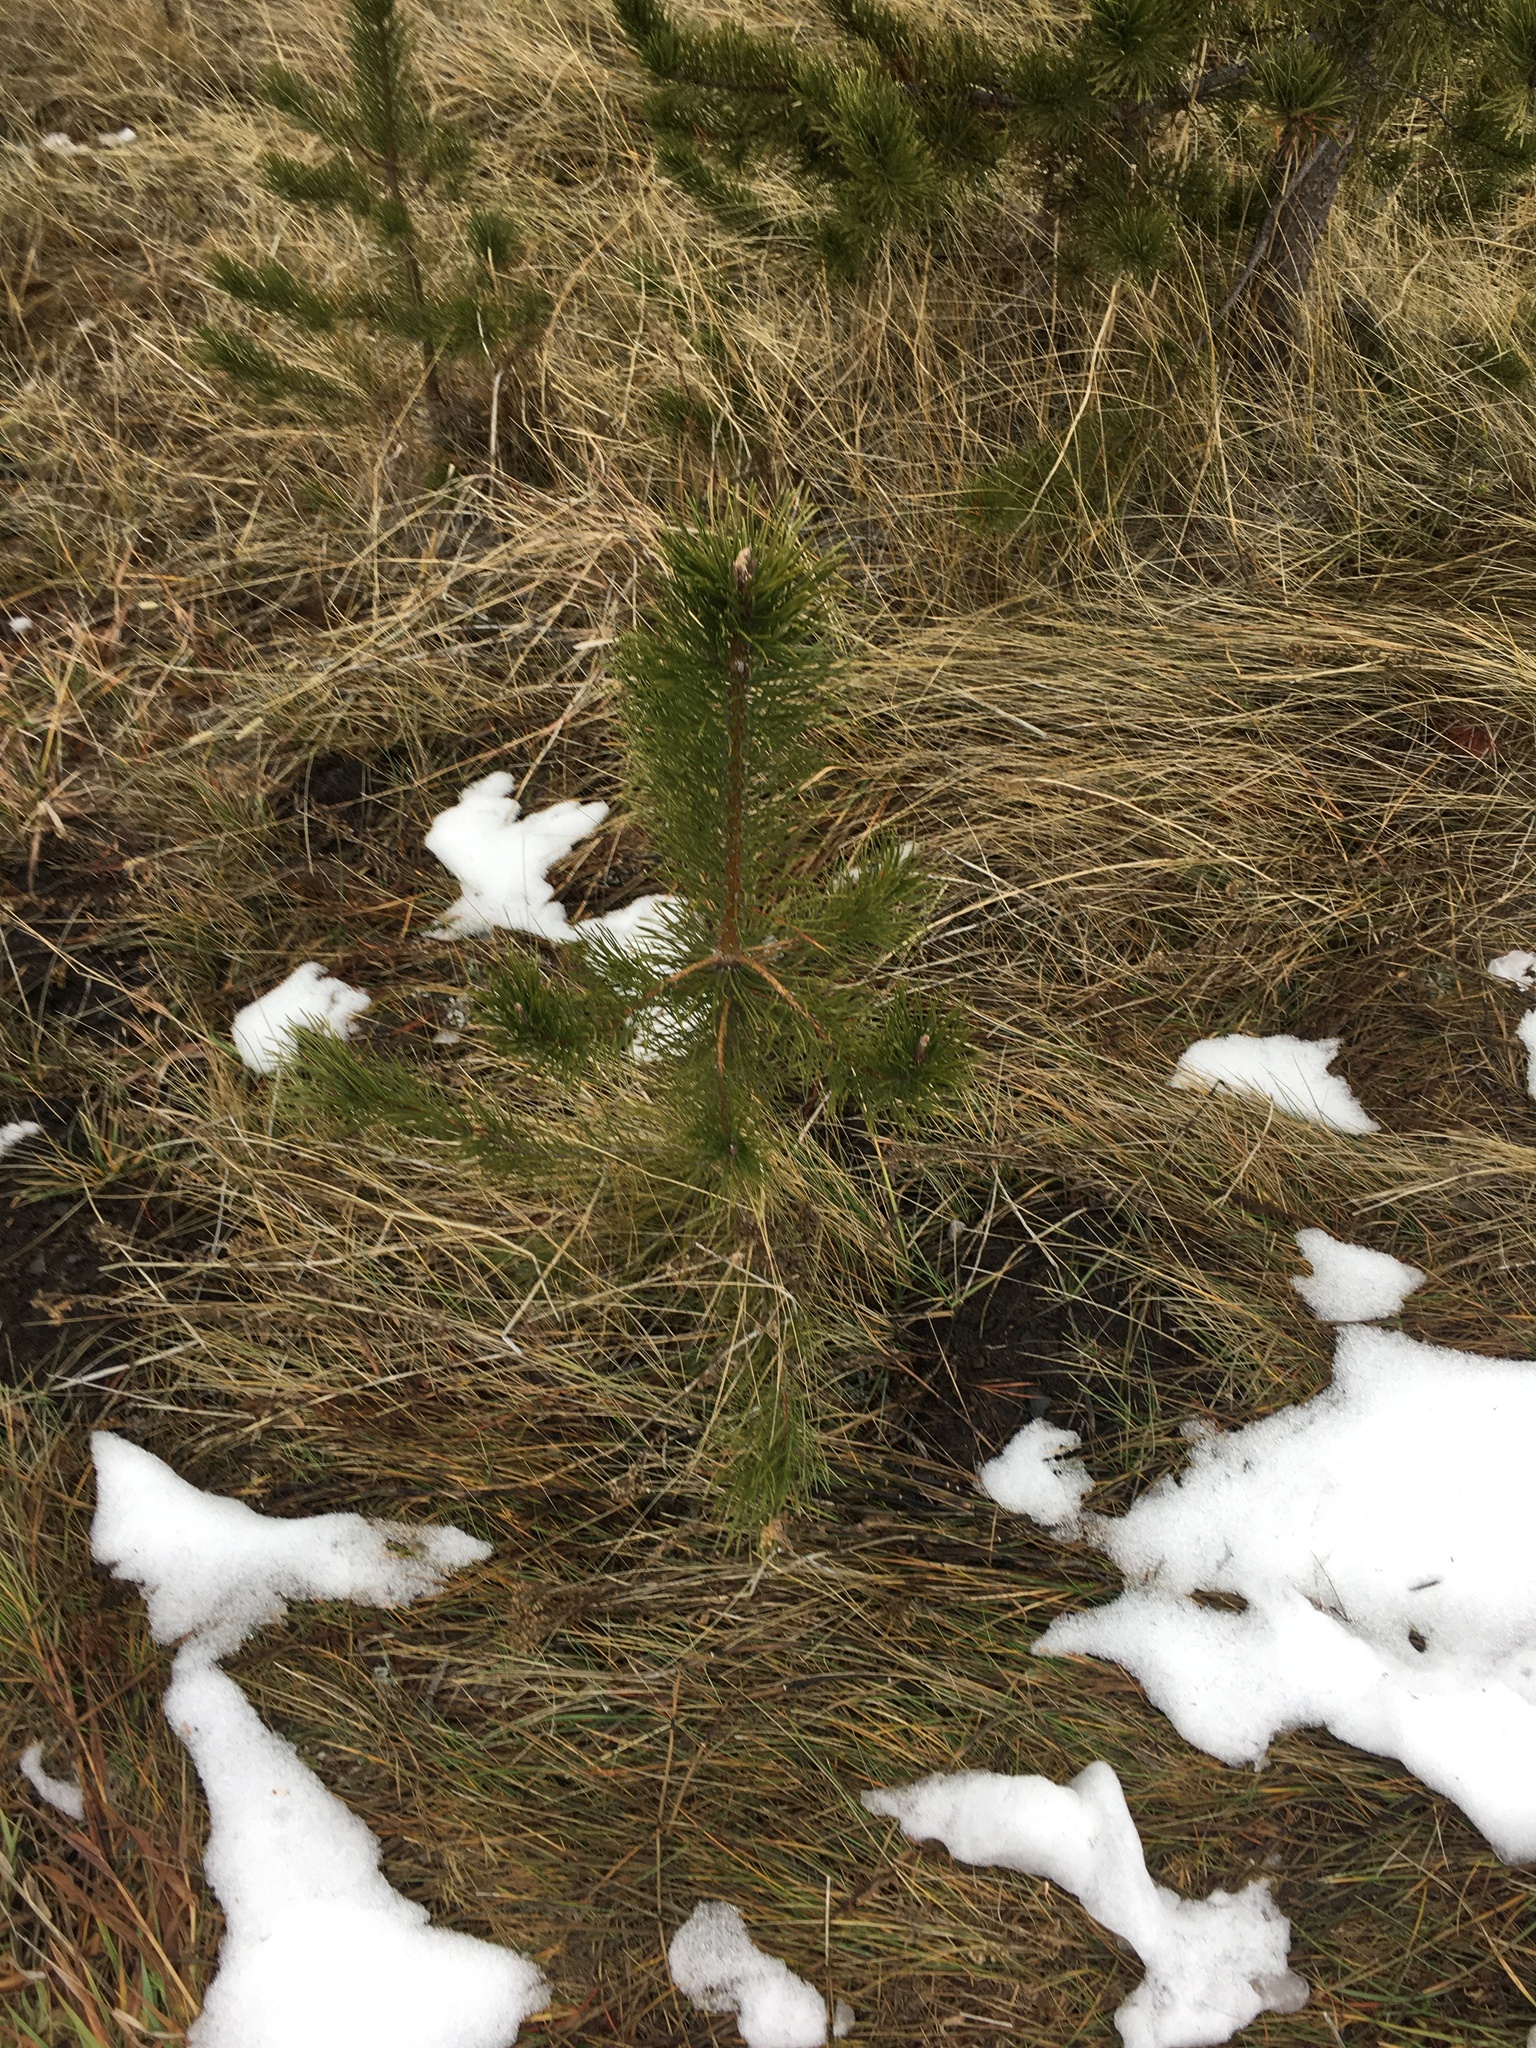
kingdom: Plantae
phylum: Tracheophyta
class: Pinopsida
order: Pinales
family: Pinaceae
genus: Pinus
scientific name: Pinus contorta
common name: Lodgepole pine
